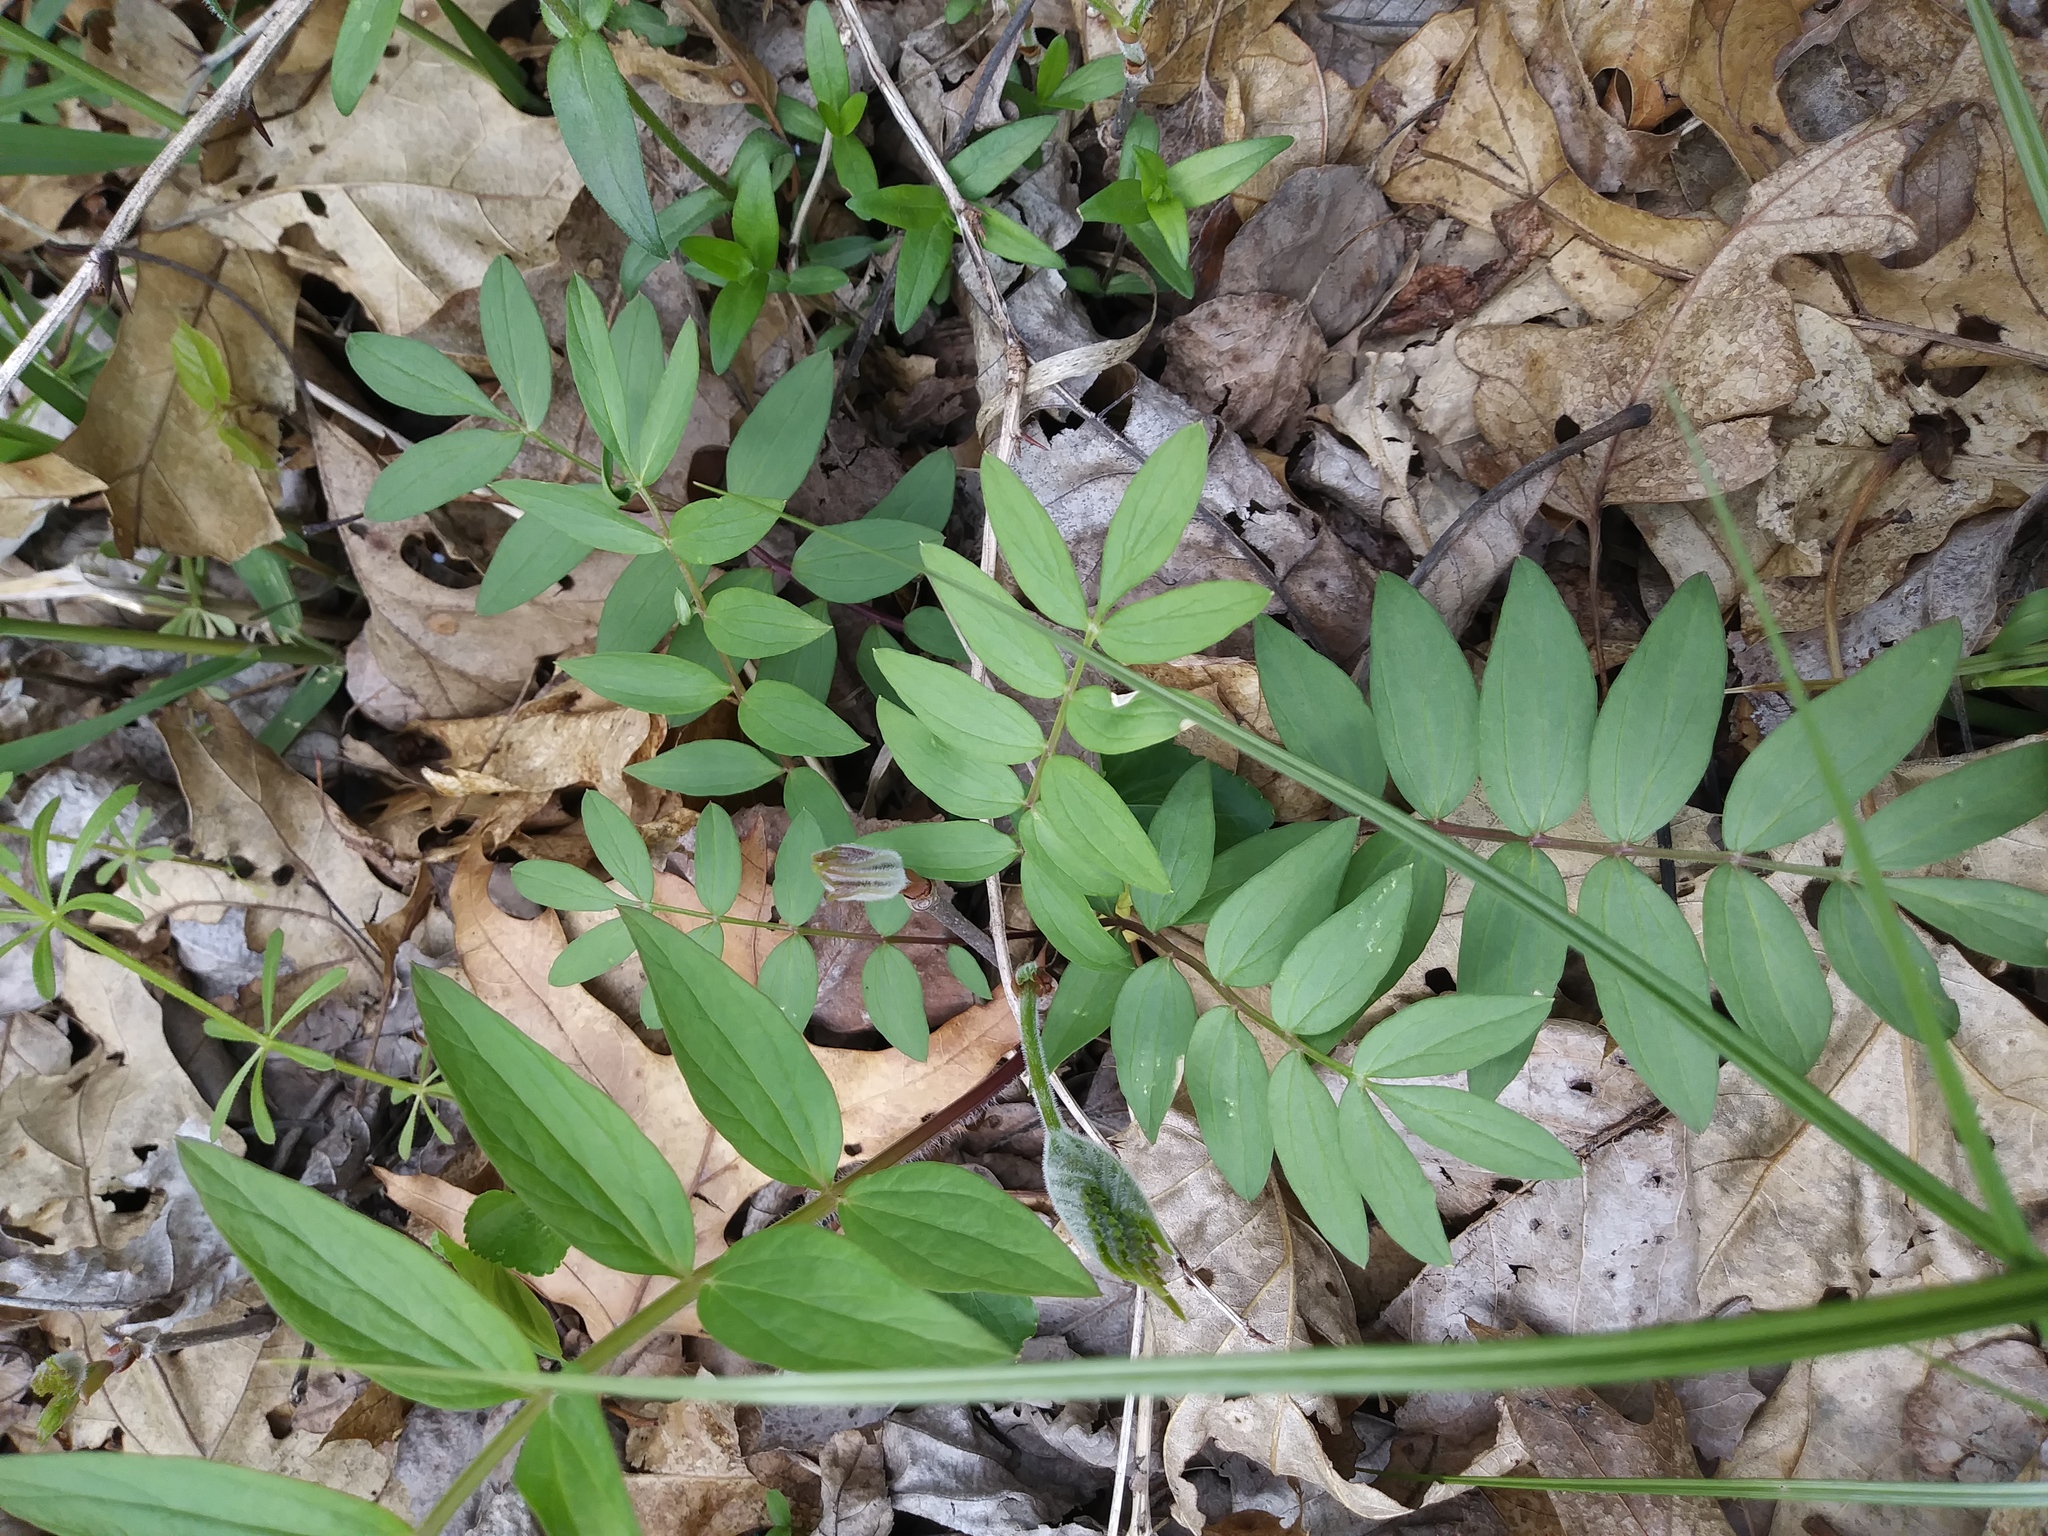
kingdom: Plantae
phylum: Tracheophyta
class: Magnoliopsida
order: Ericales
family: Polemoniaceae
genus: Polemonium
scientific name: Polemonium reptans
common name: Creeping jacob's-ladder
